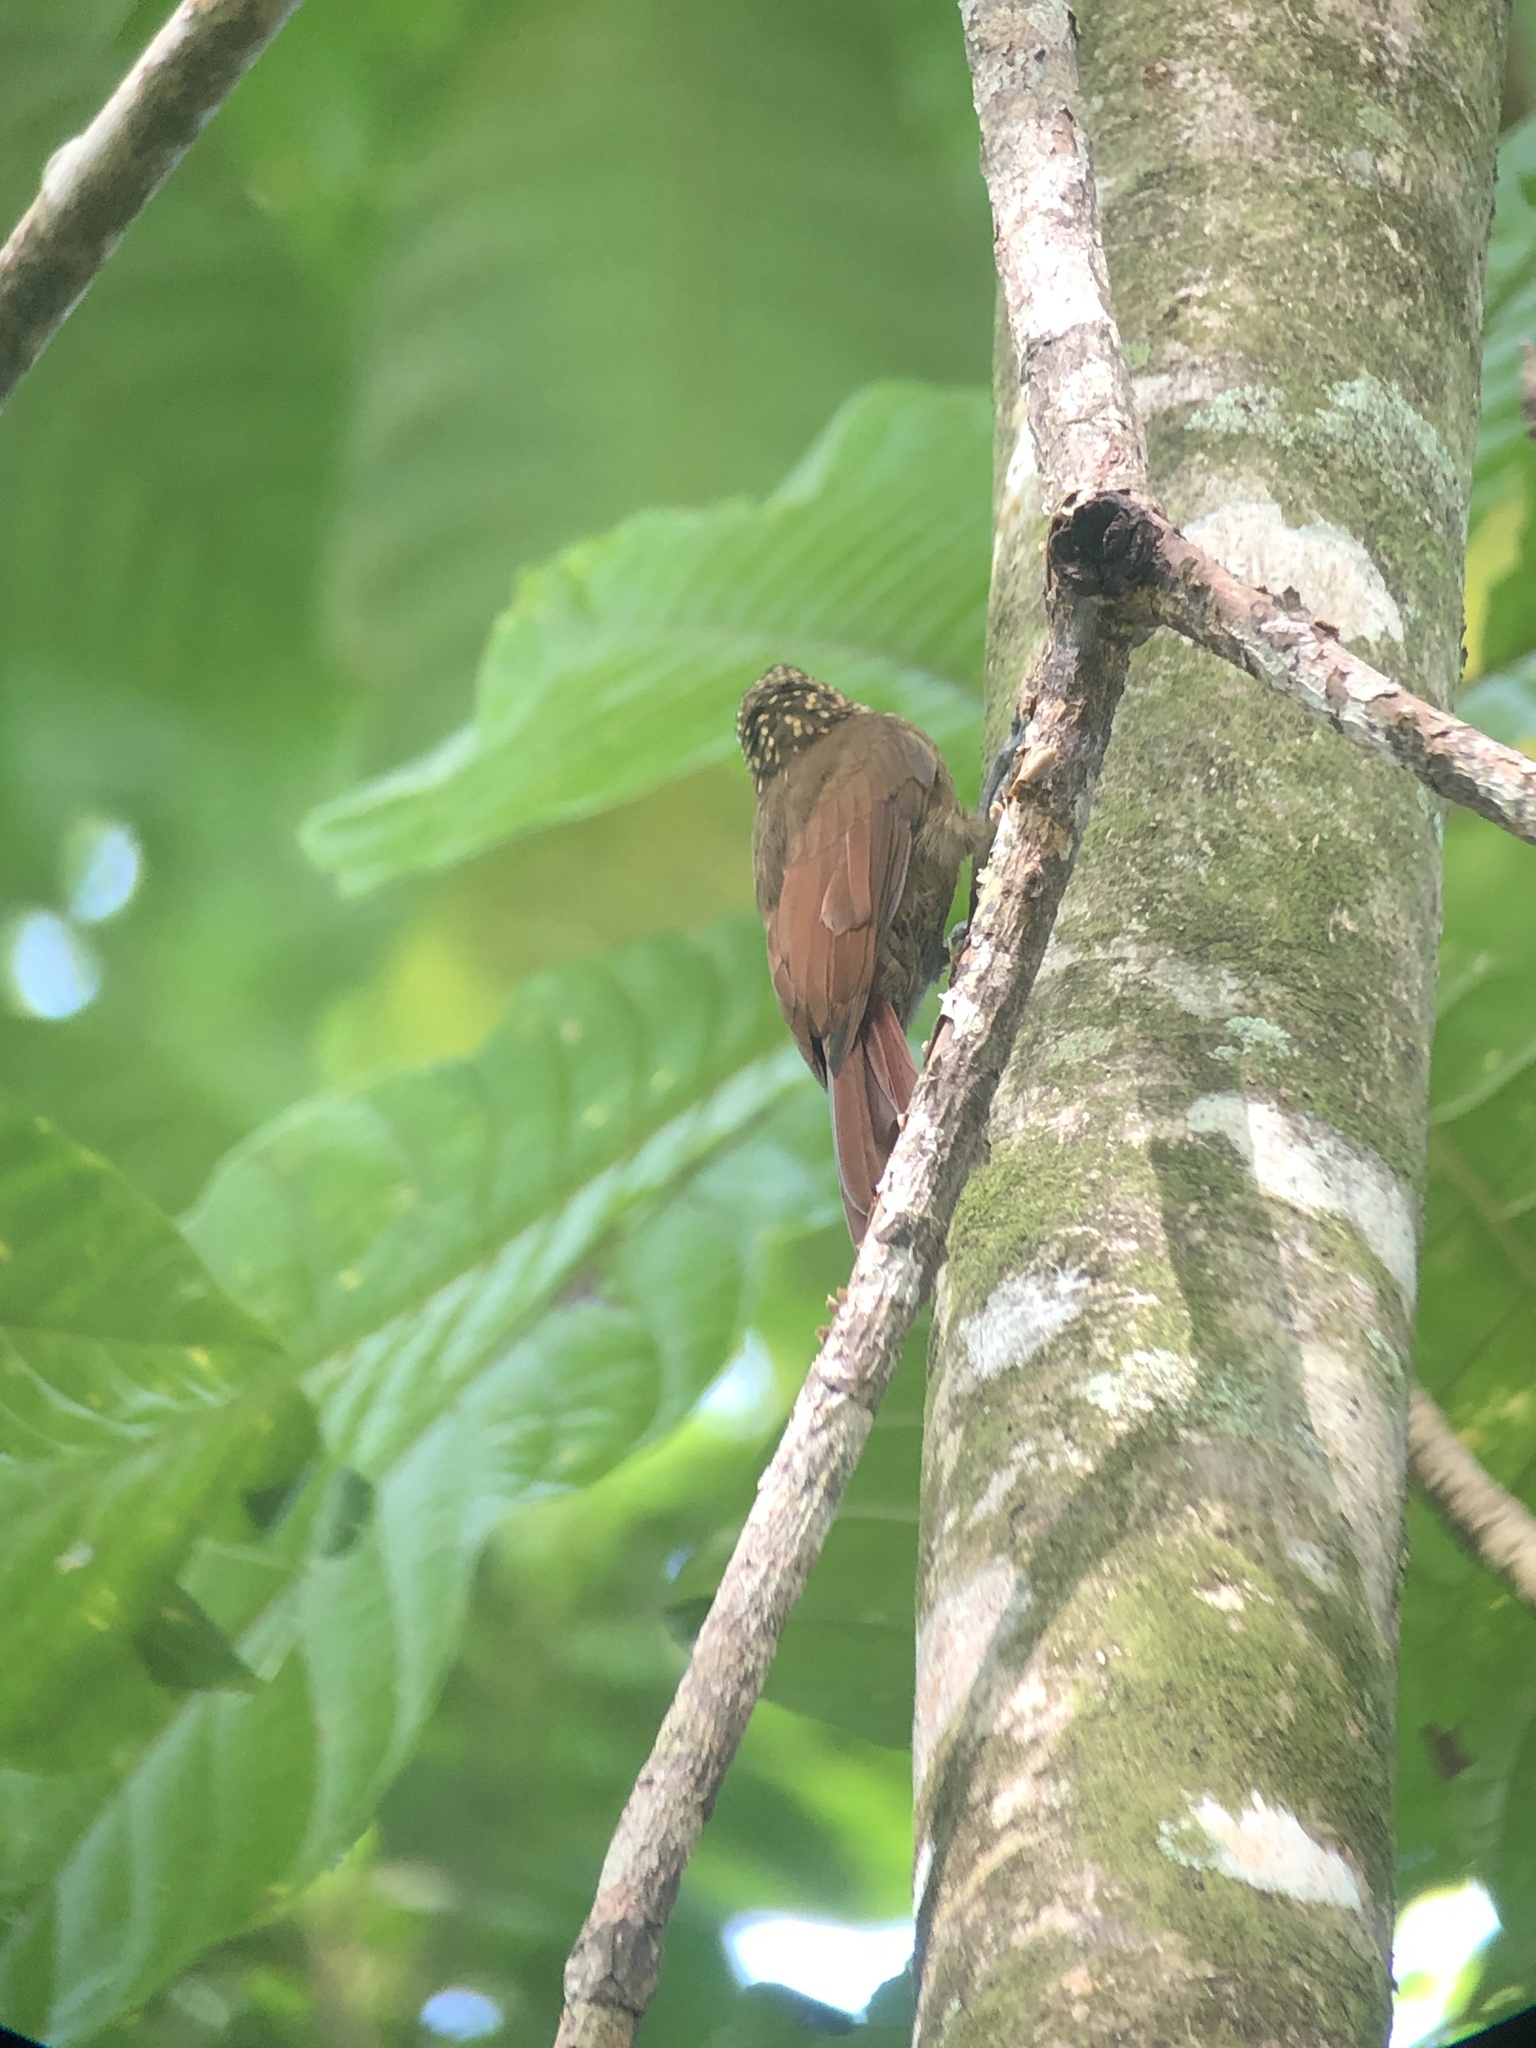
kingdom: Animalia
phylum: Chordata
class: Aves
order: Passeriformes
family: Furnariidae
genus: Xiphorhynchus
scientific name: Xiphorhynchus susurrans
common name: Cocoa woodcreeper
